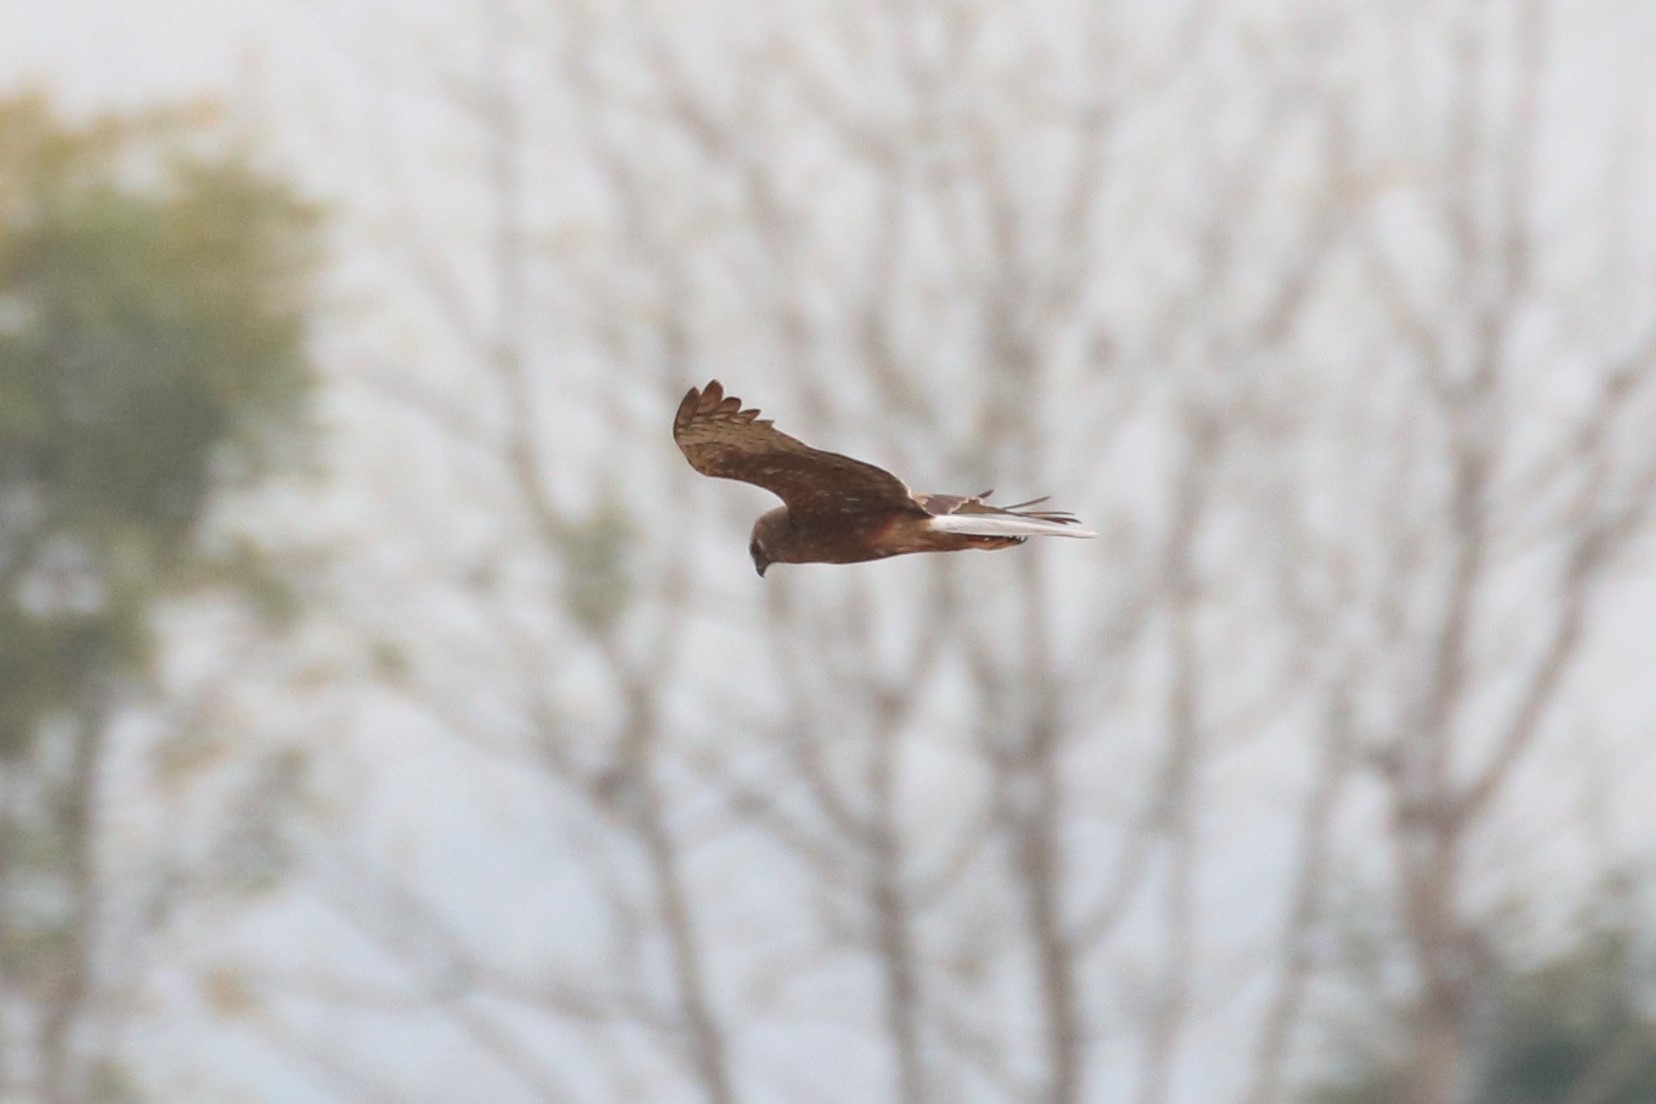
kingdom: Animalia
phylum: Chordata
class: Aves
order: Accipitriformes
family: Accipitridae
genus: Circus
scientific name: Circus melanoleucos
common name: Pied harrier
